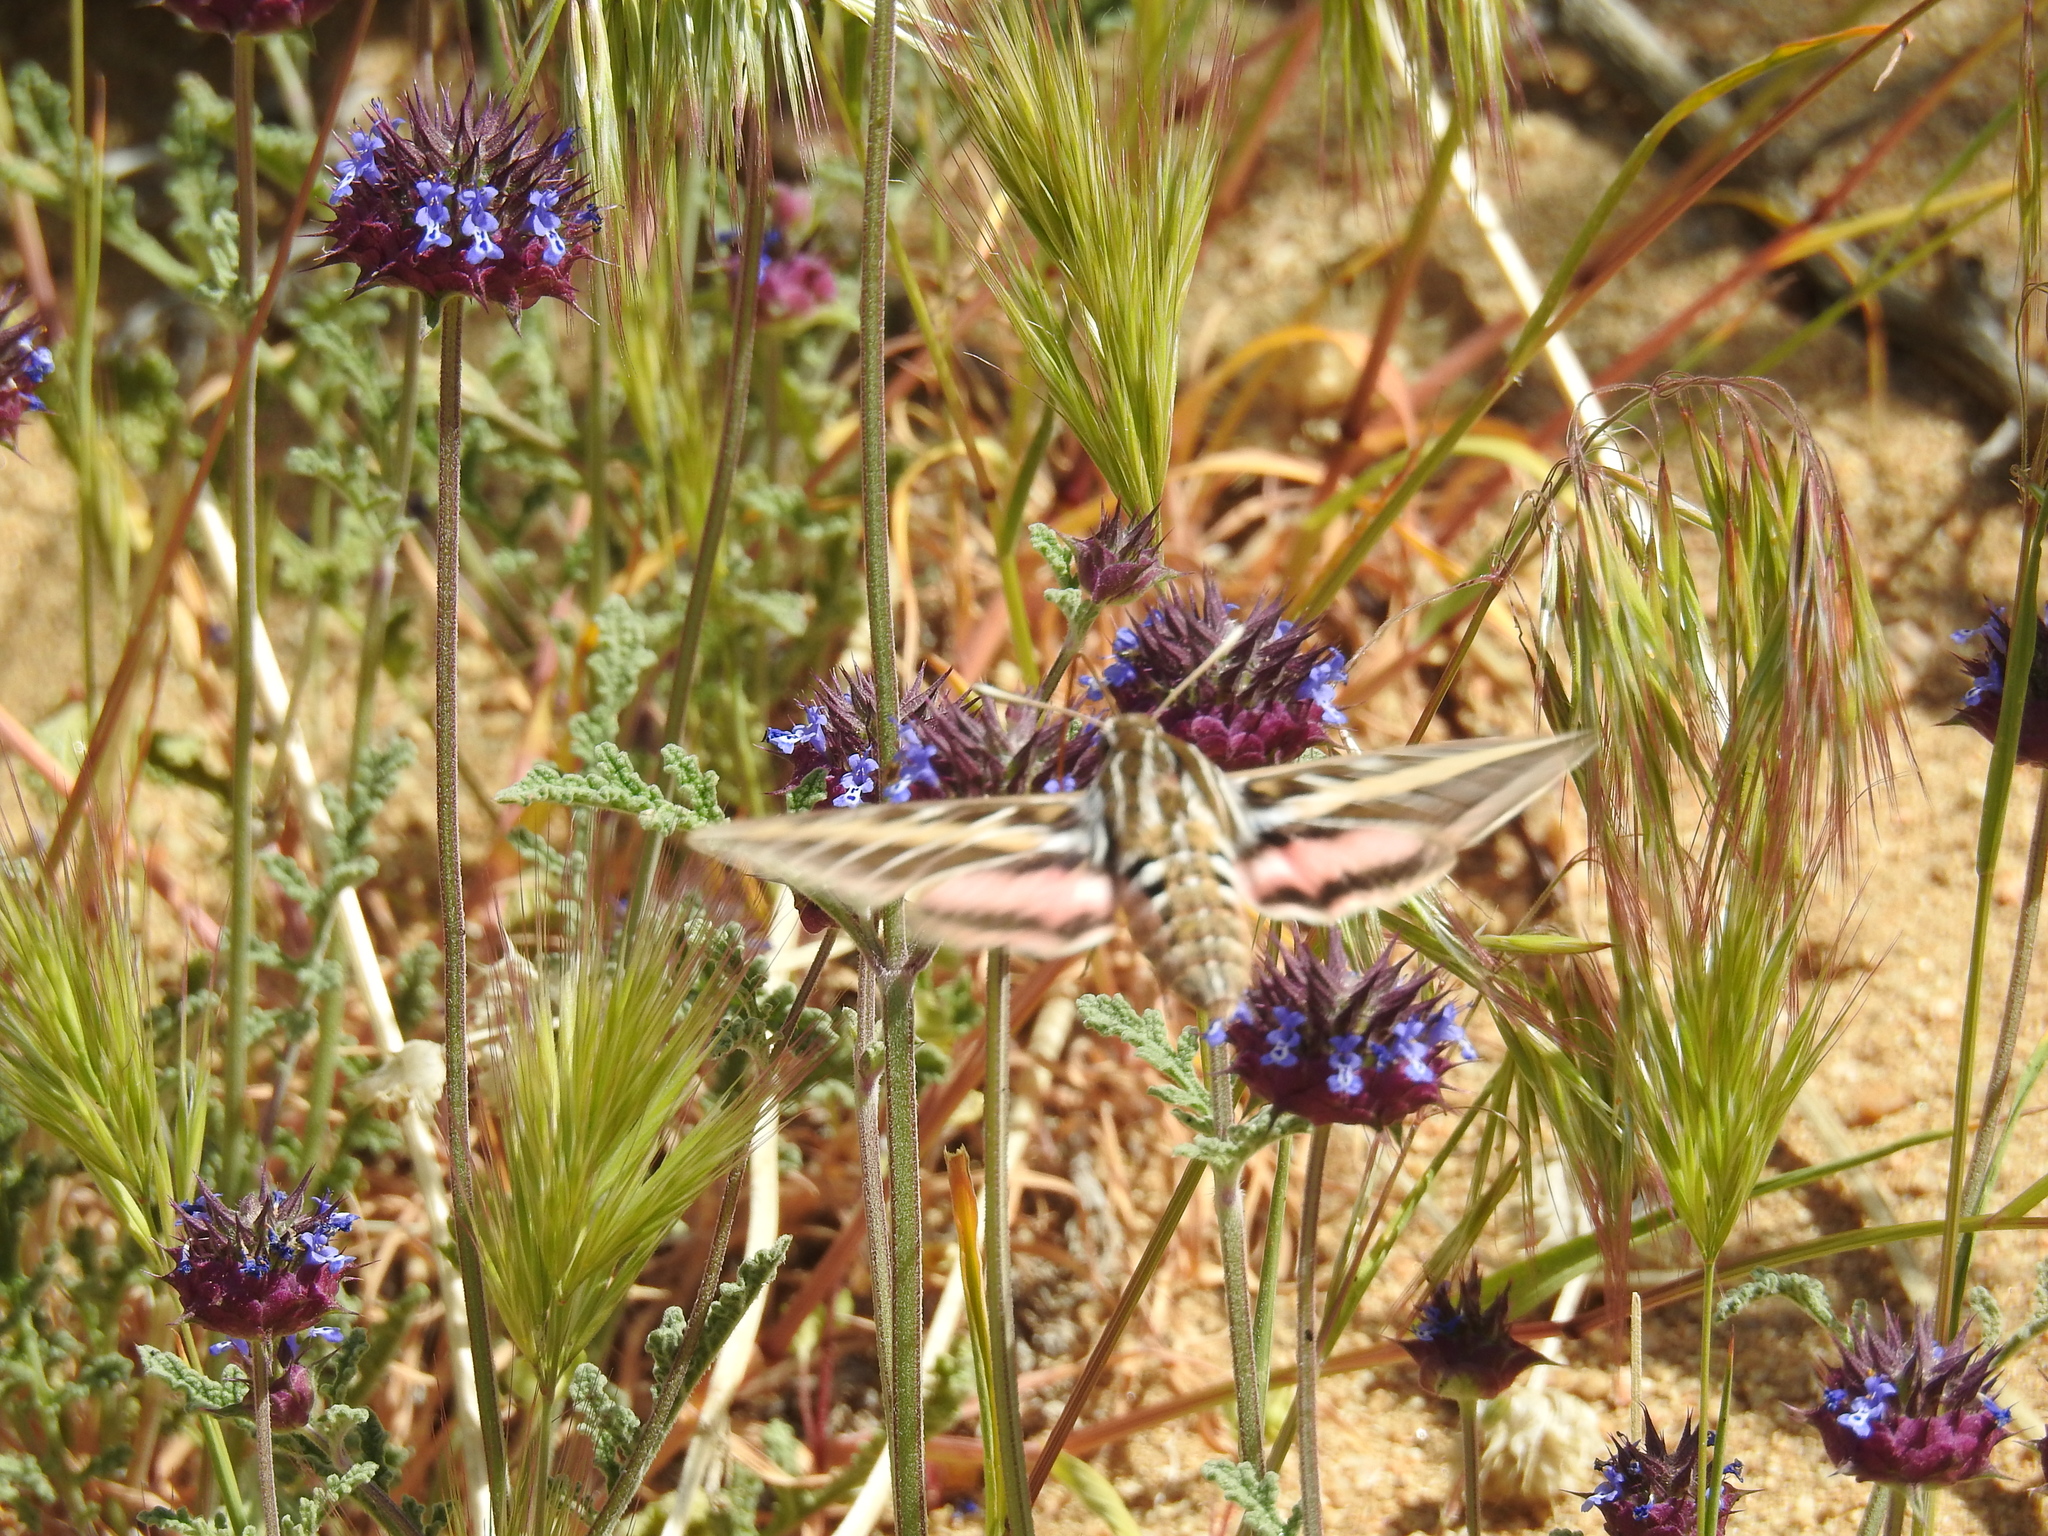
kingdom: Animalia
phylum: Arthropoda
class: Insecta
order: Lepidoptera
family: Sphingidae
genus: Hyles
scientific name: Hyles lineata
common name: White-lined sphinx
